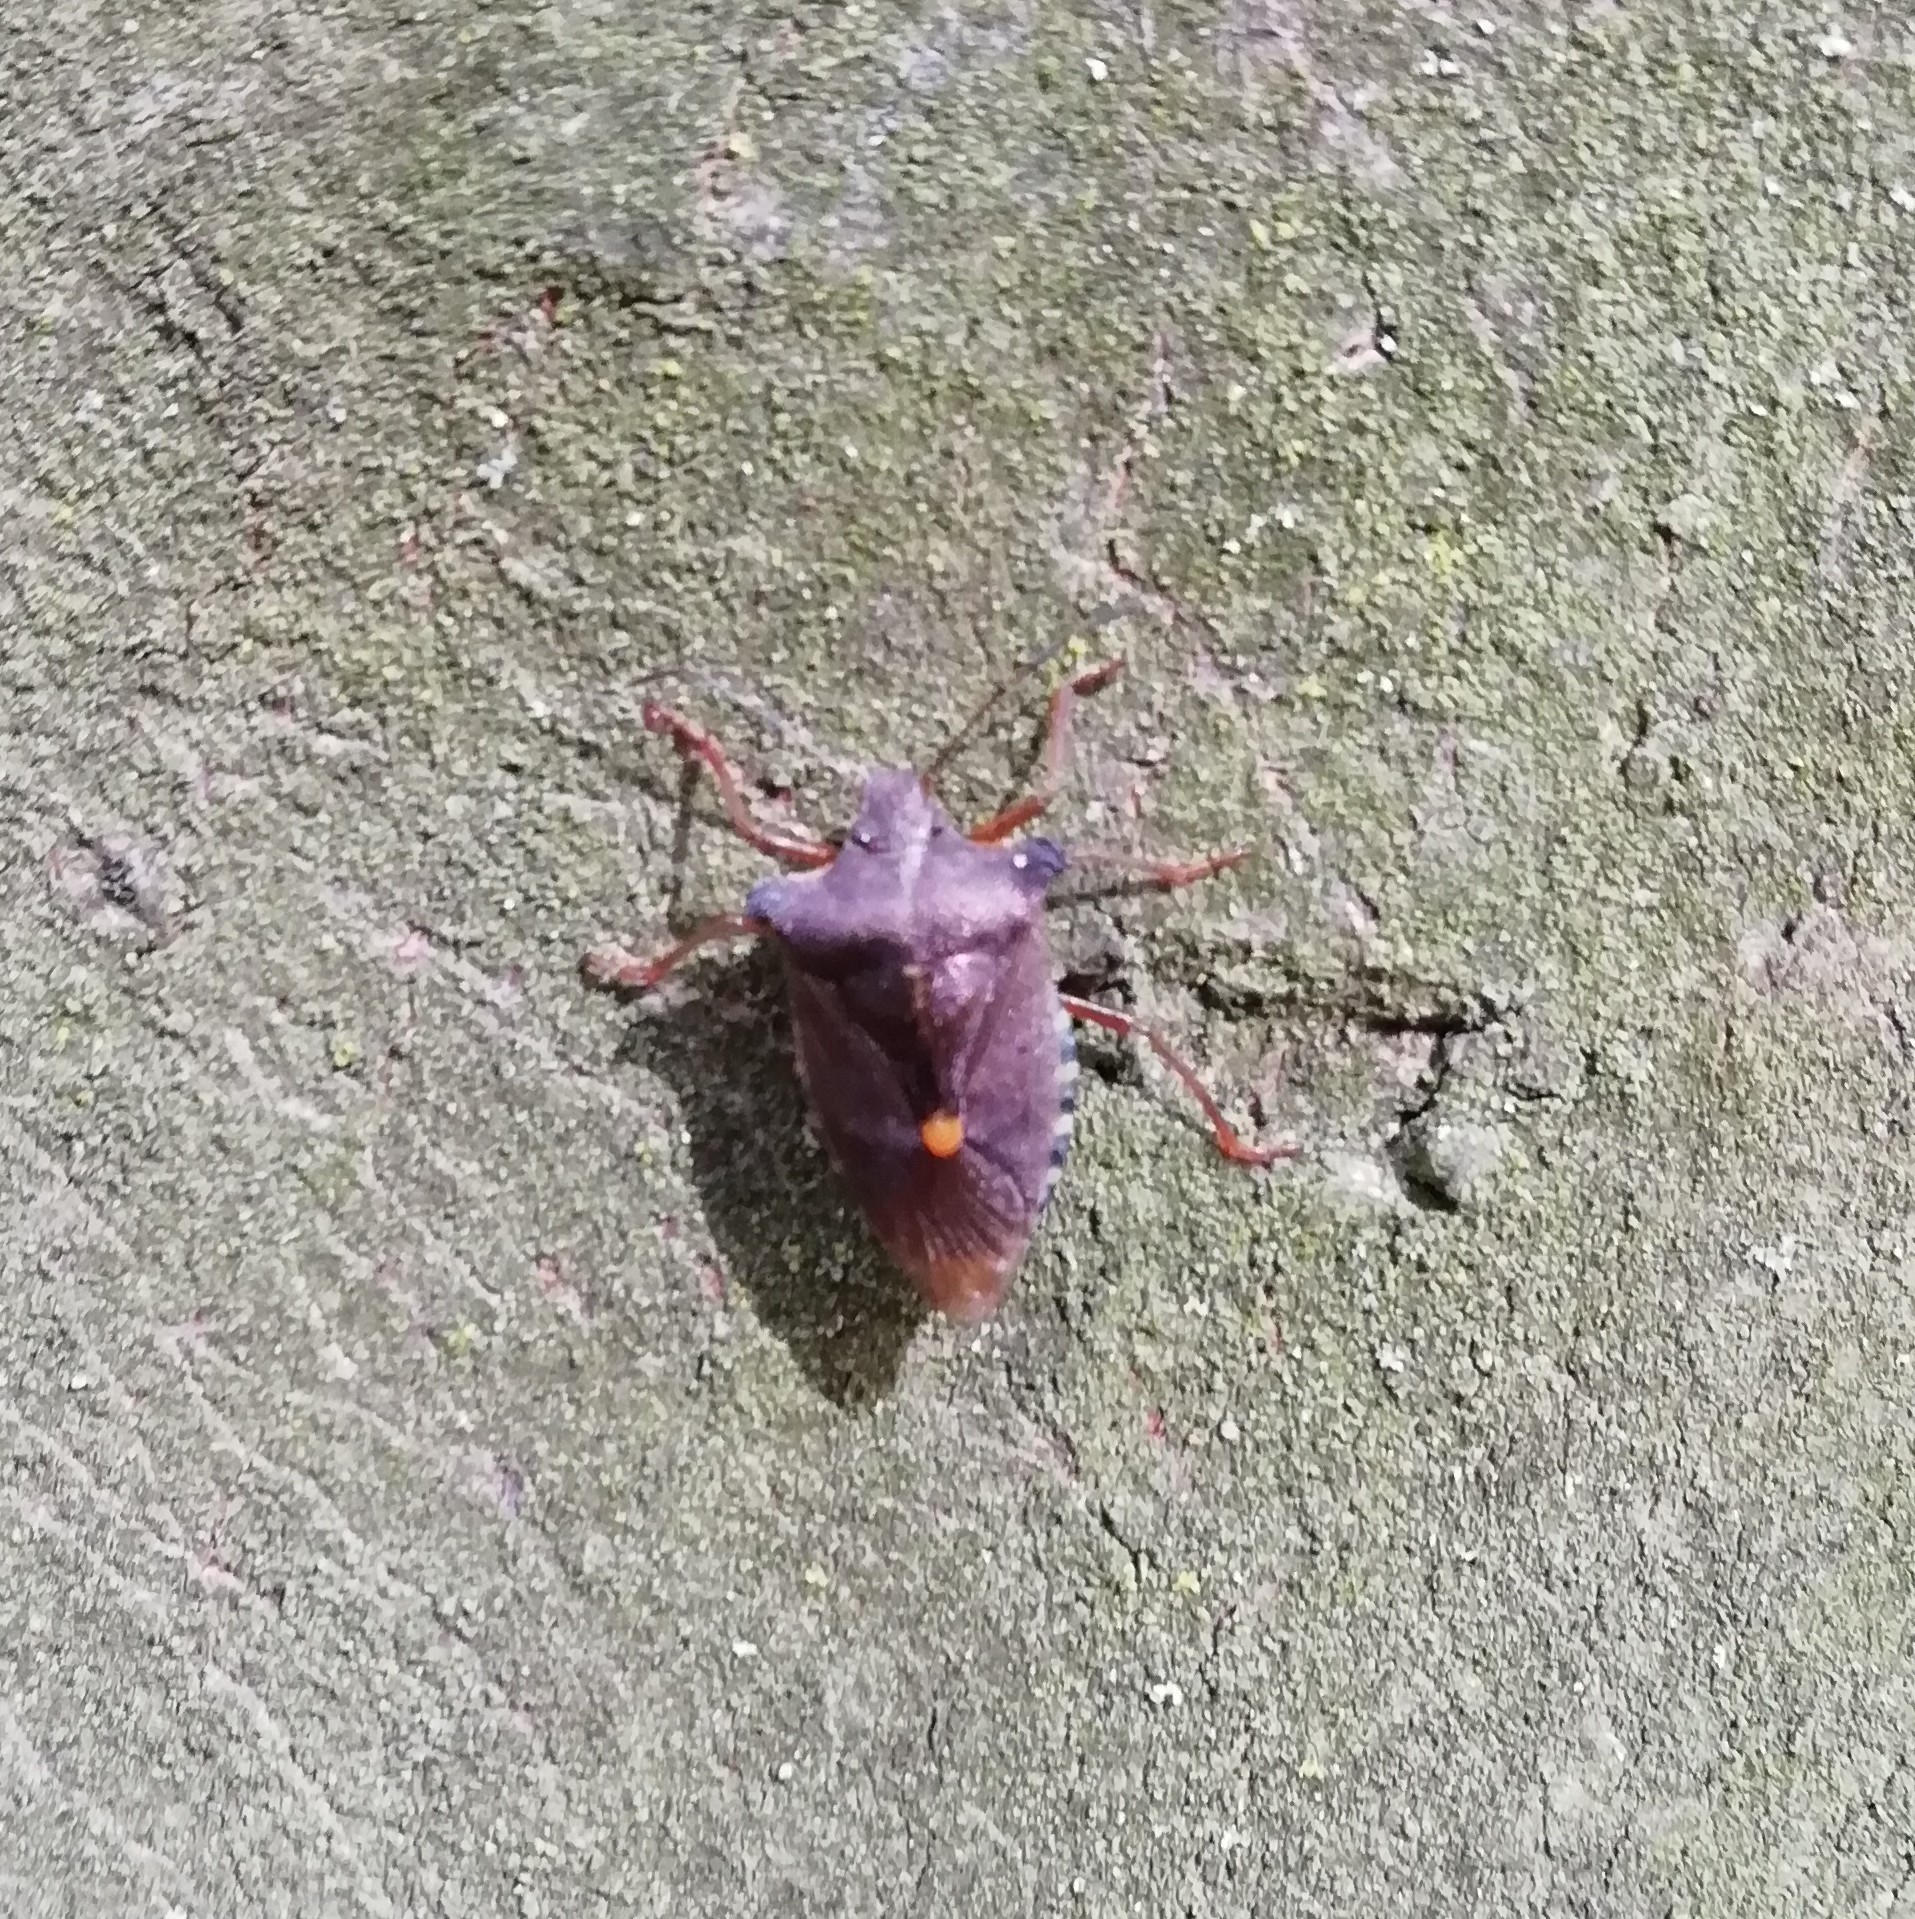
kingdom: Animalia
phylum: Arthropoda
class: Insecta
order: Hemiptera
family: Pentatomidae
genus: Pentatoma
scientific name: Pentatoma rufipes
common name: Forest bug
